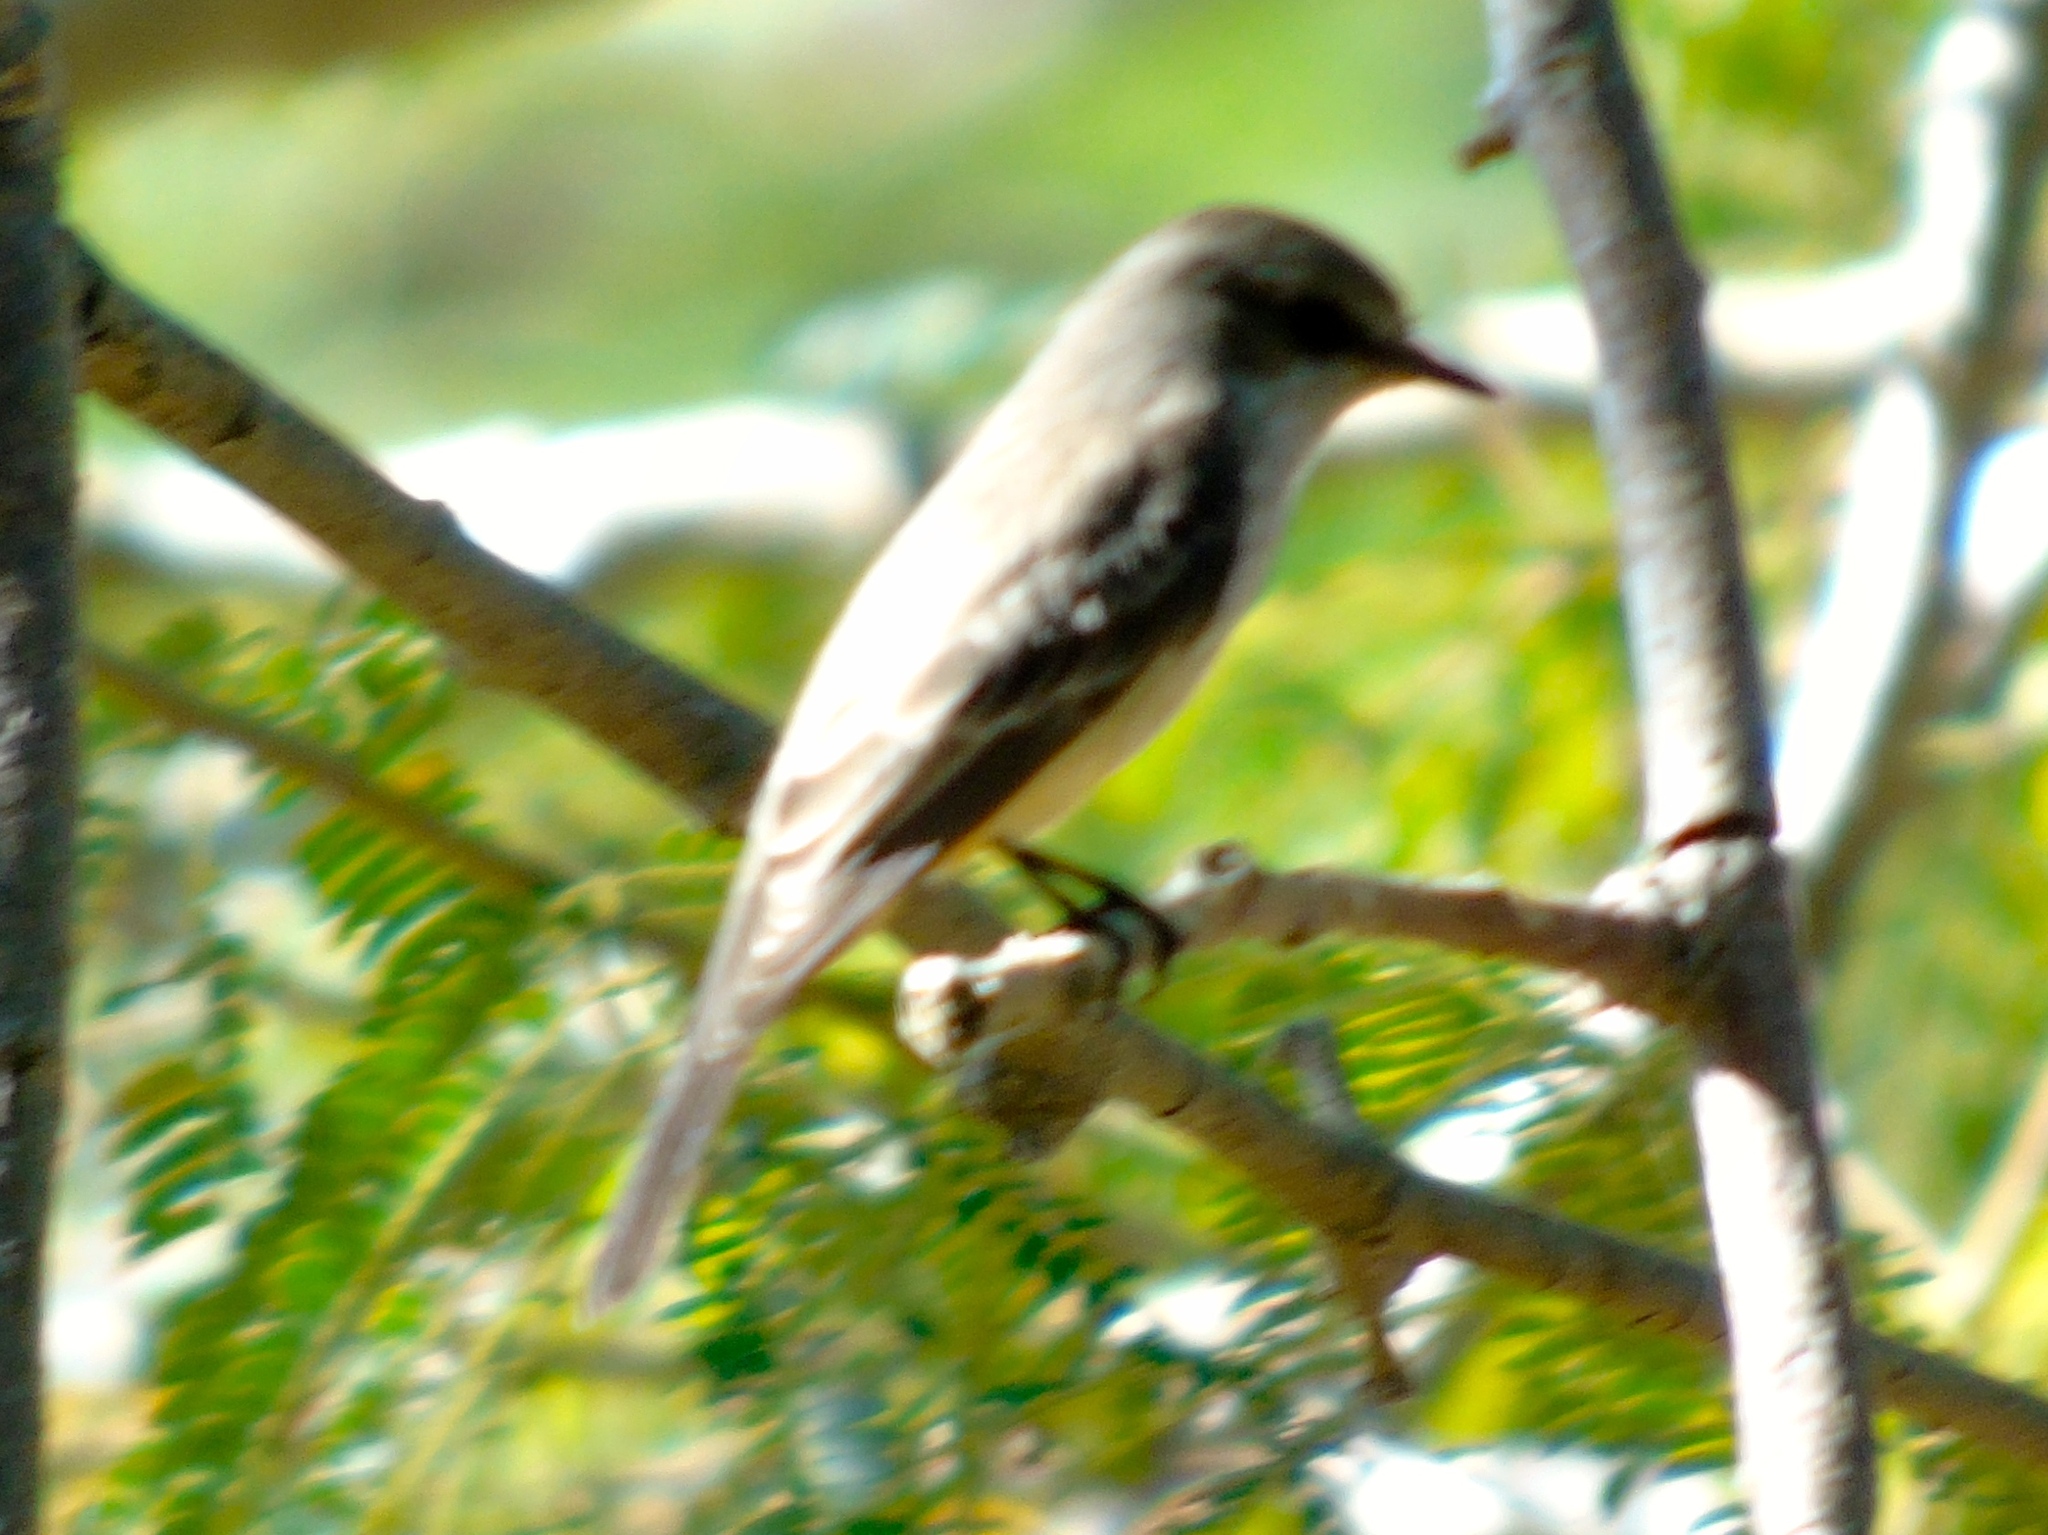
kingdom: Animalia
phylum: Chordata
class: Aves
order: Passeriformes
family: Tyrannidae
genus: Pyrocephalus
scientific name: Pyrocephalus rubinus
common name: Vermilion flycatcher
